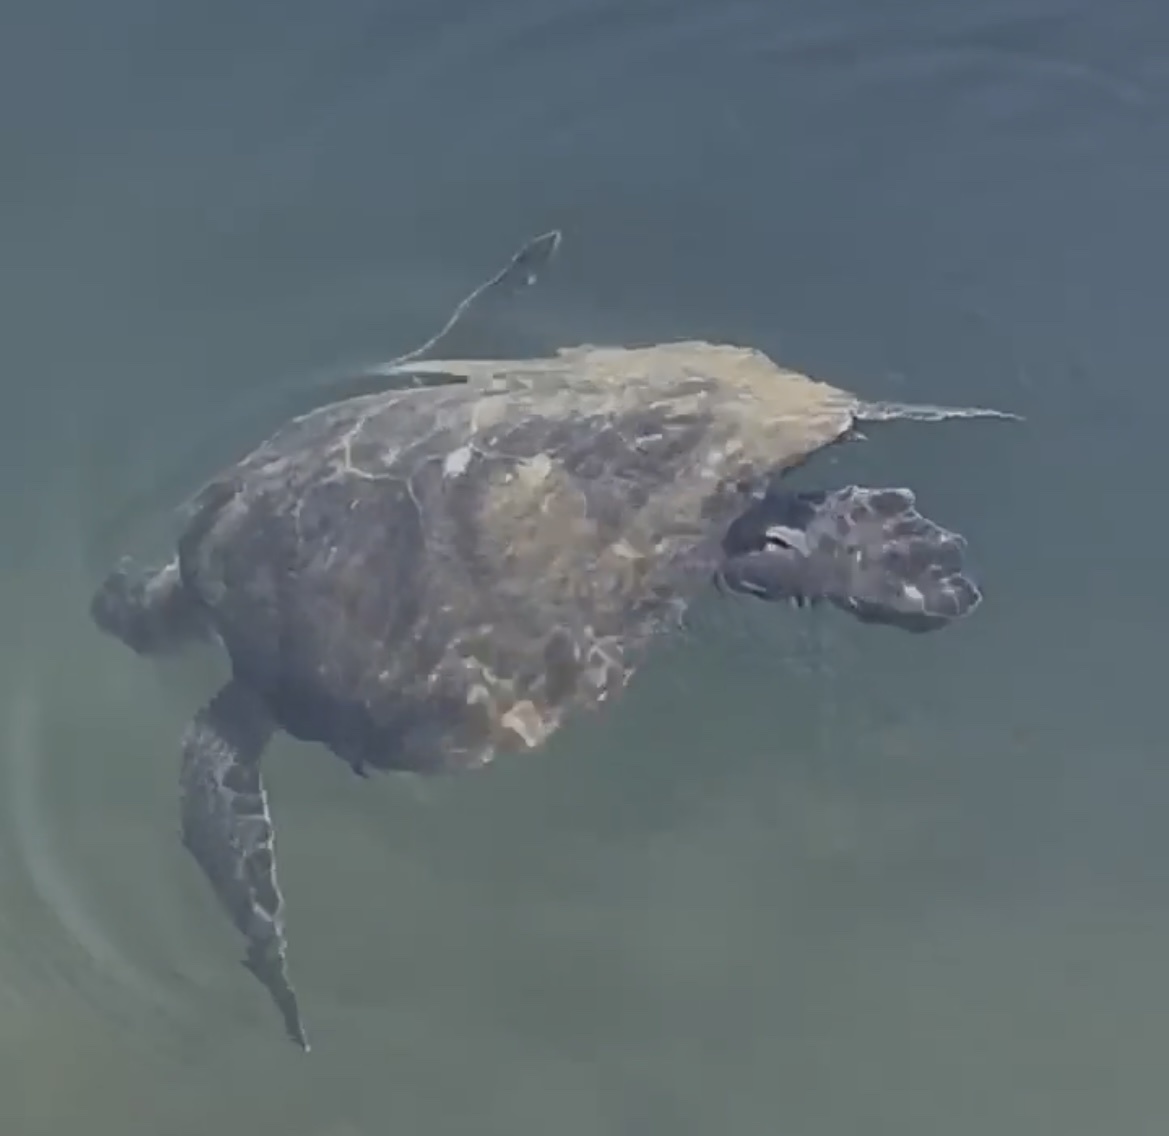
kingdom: Animalia
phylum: Chordata
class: Testudines
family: Cheloniidae
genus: Chelonia
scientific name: Chelonia mydas
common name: Green turtle
